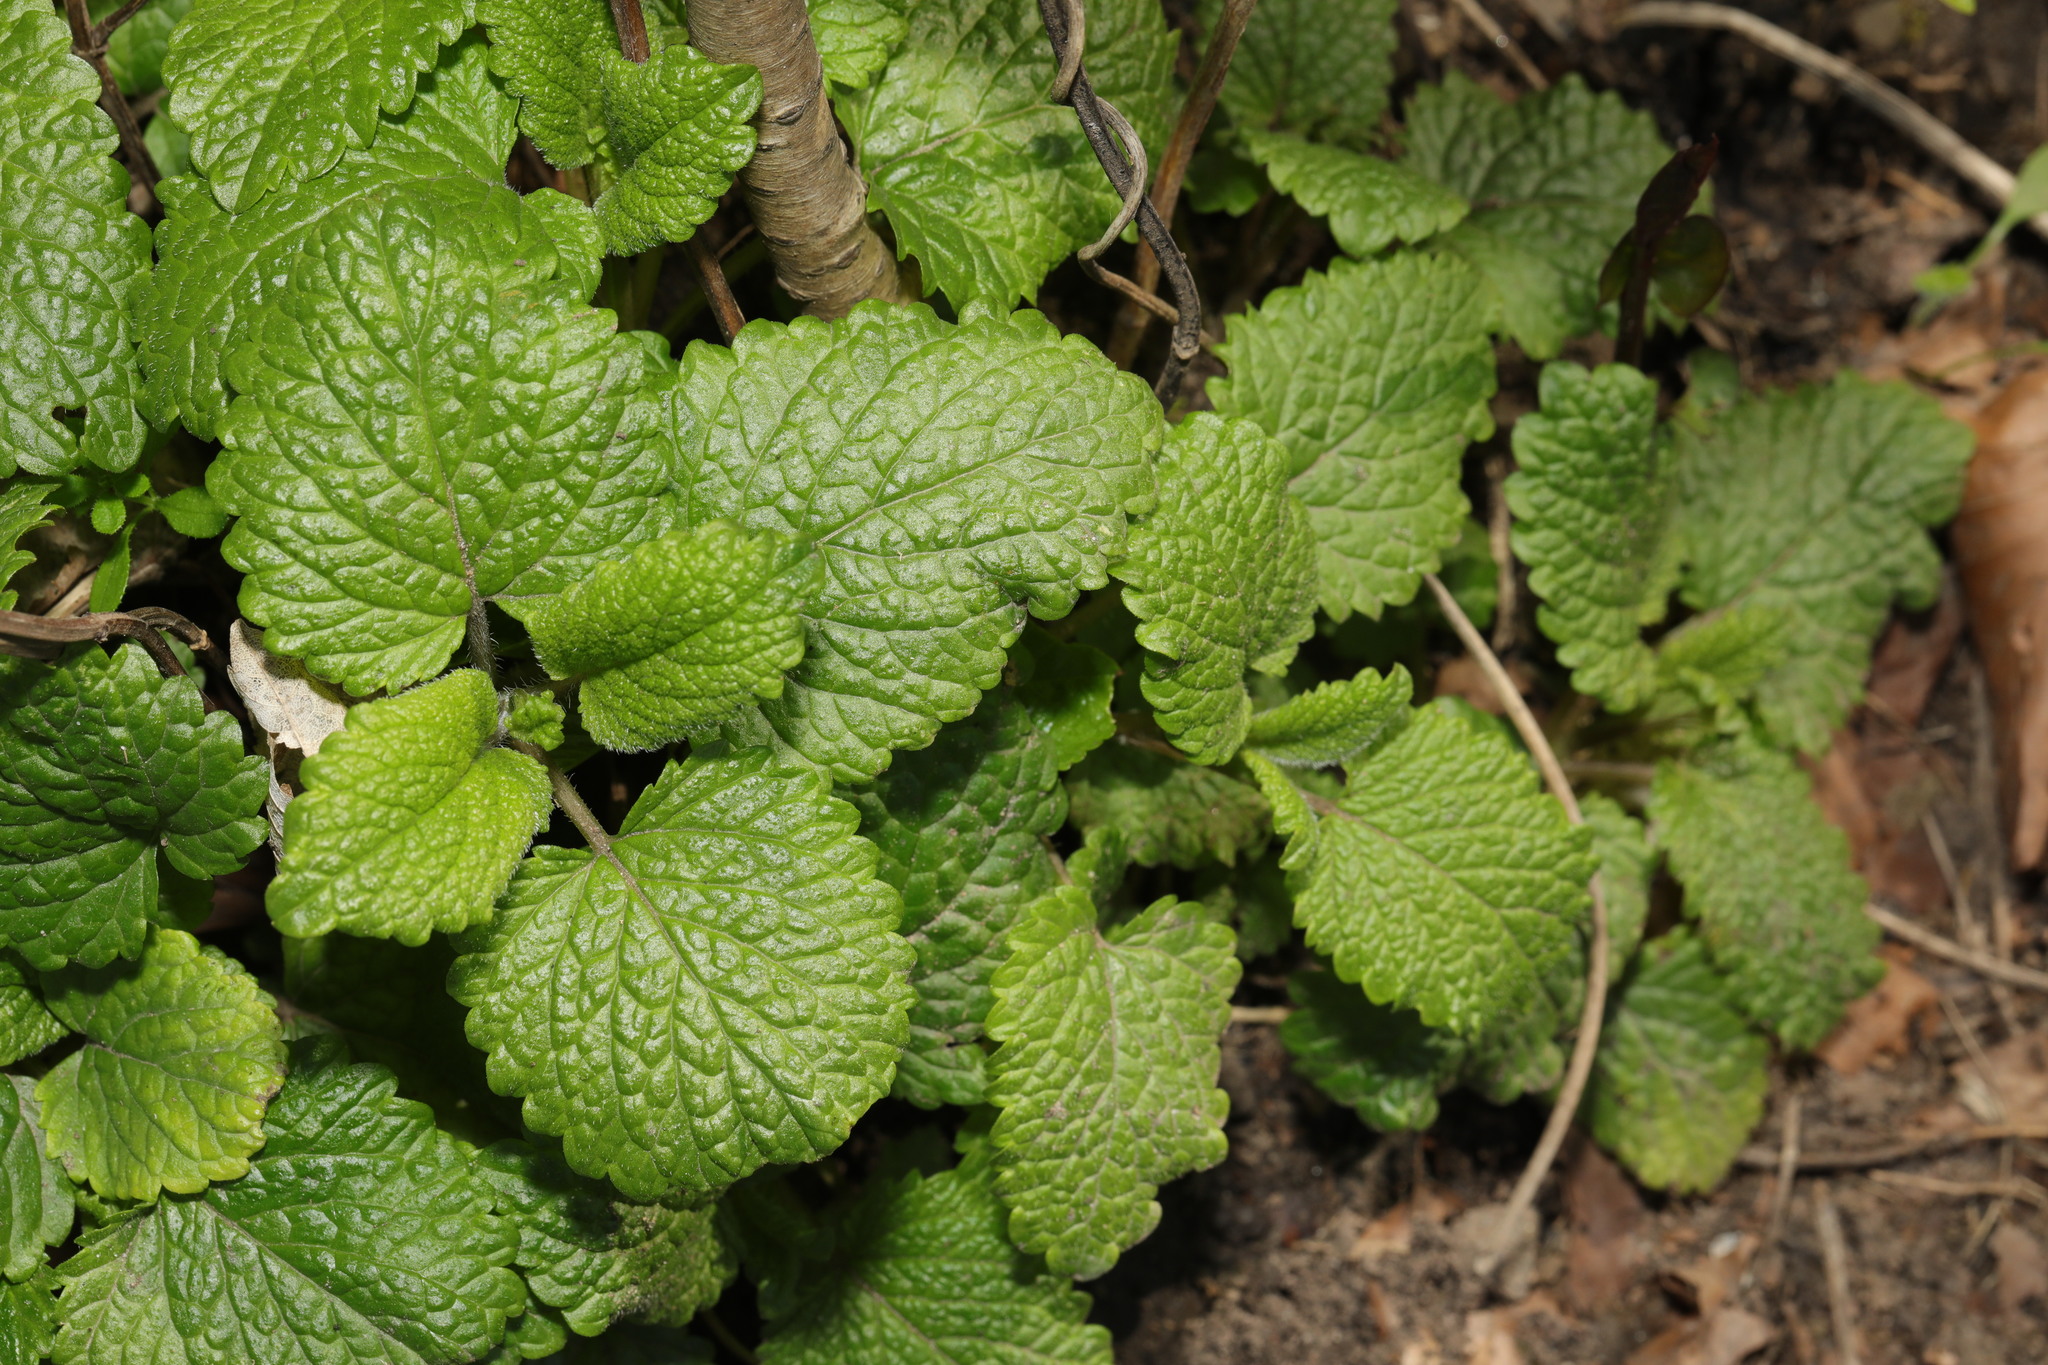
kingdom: Plantae
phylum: Tracheophyta
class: Magnoliopsida
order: Lamiales
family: Lamiaceae
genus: Melissa
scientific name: Melissa officinalis
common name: Balm
